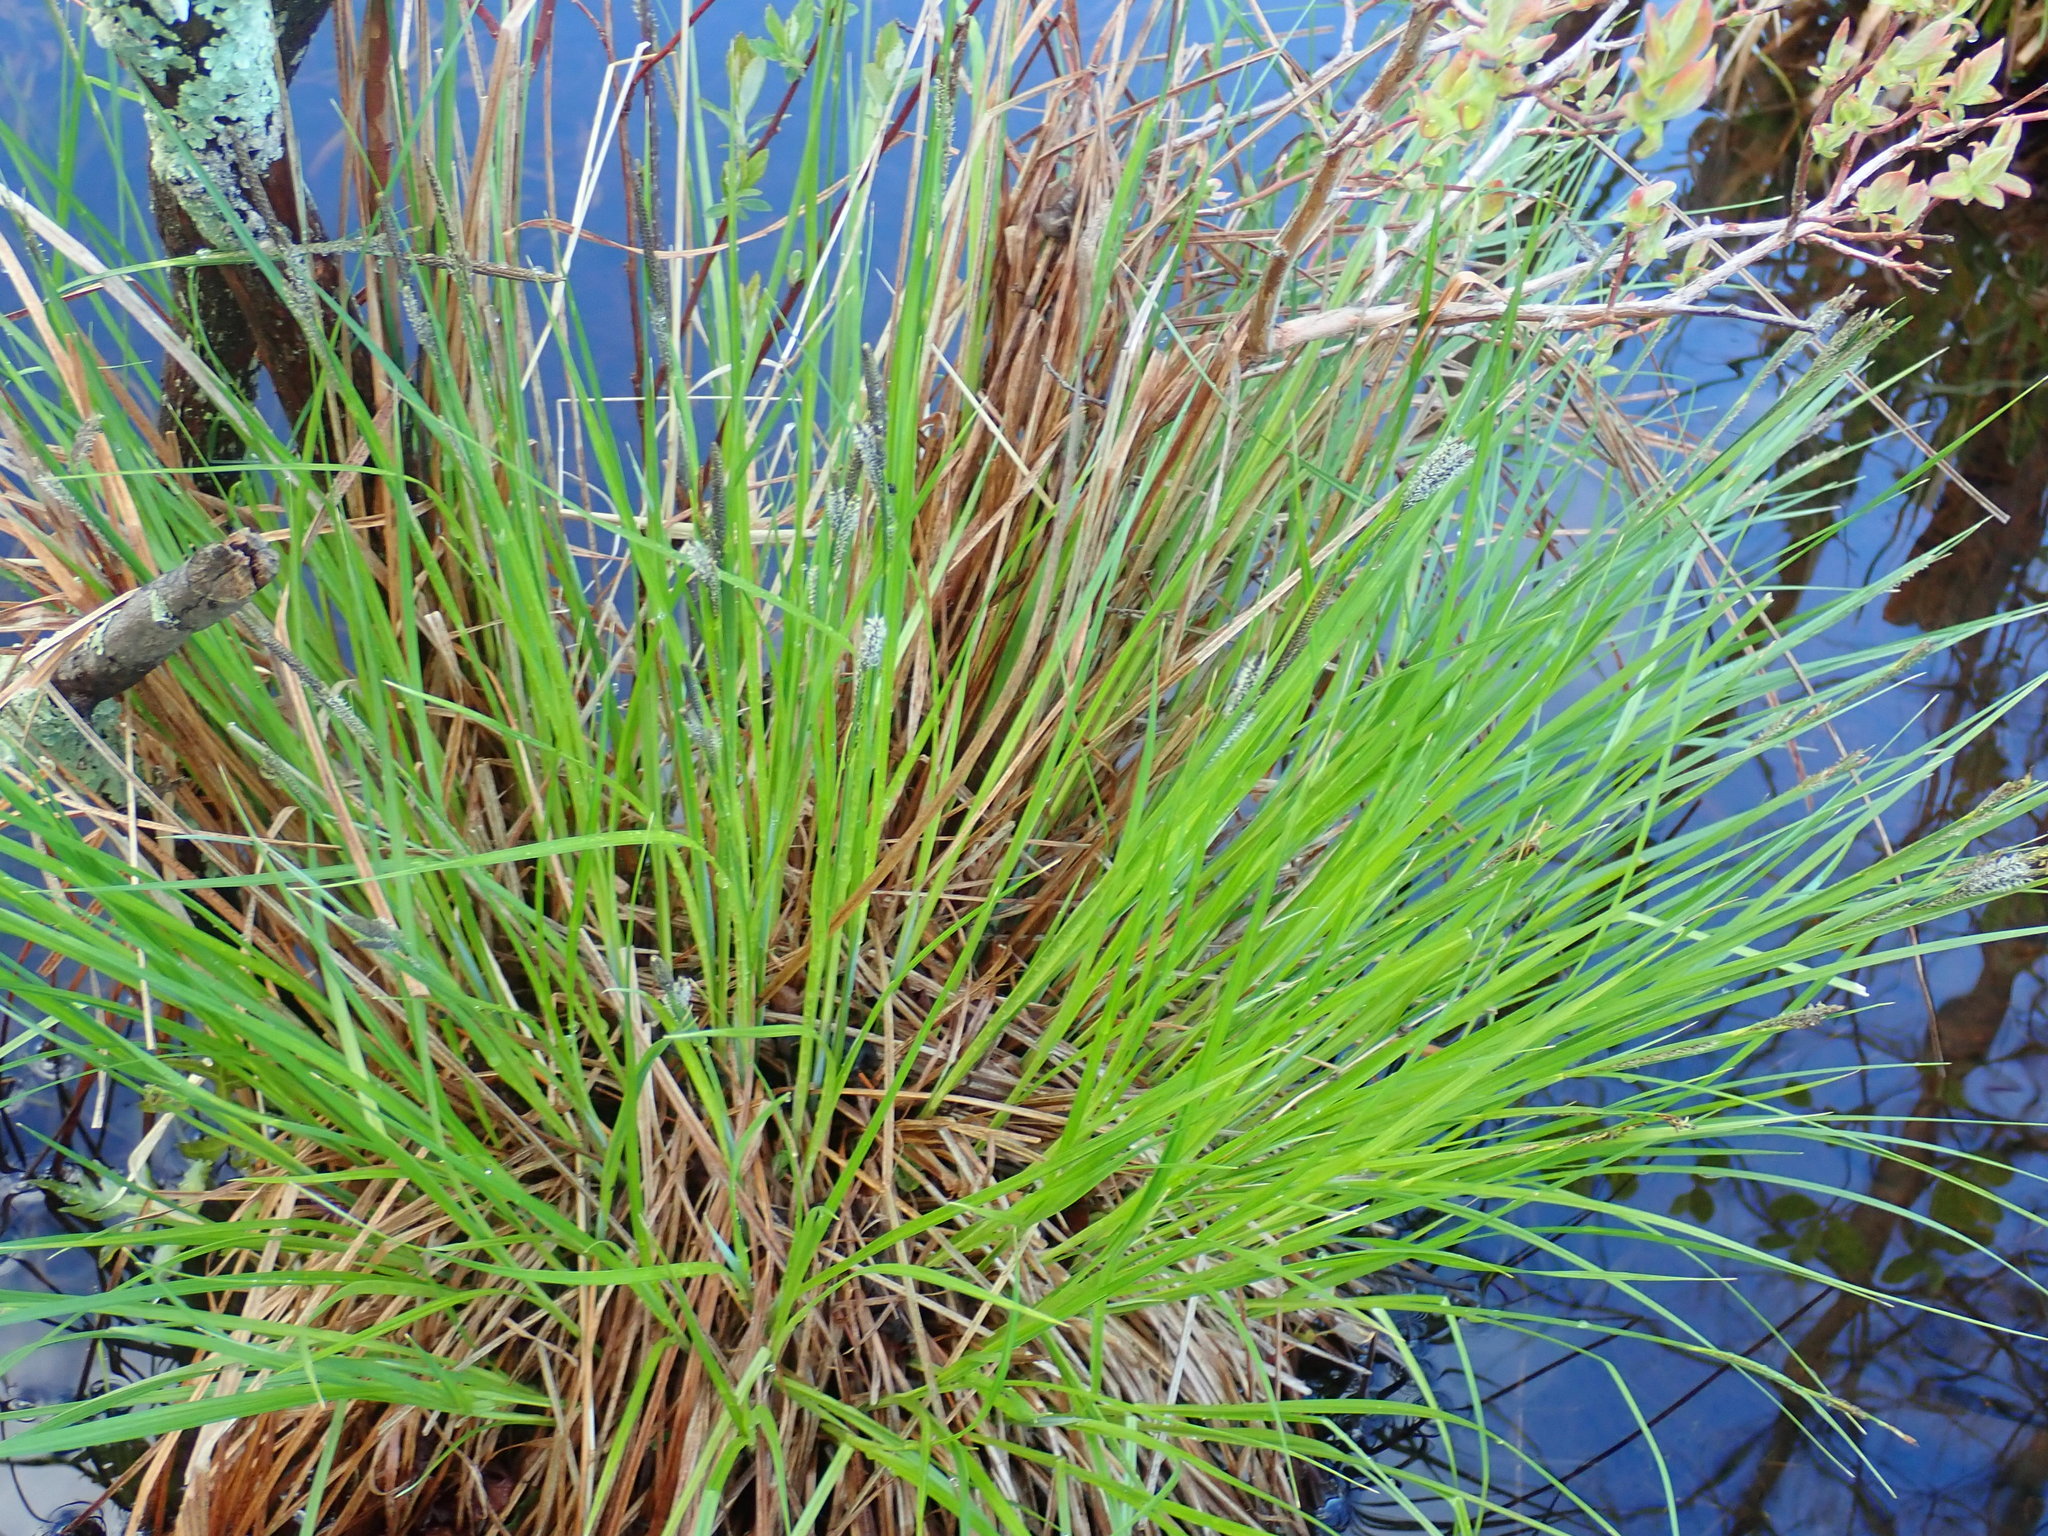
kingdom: Plantae
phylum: Tracheophyta
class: Liliopsida
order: Poales
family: Cyperaceae
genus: Carex
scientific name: Carex stricta
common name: Hummock sedge
